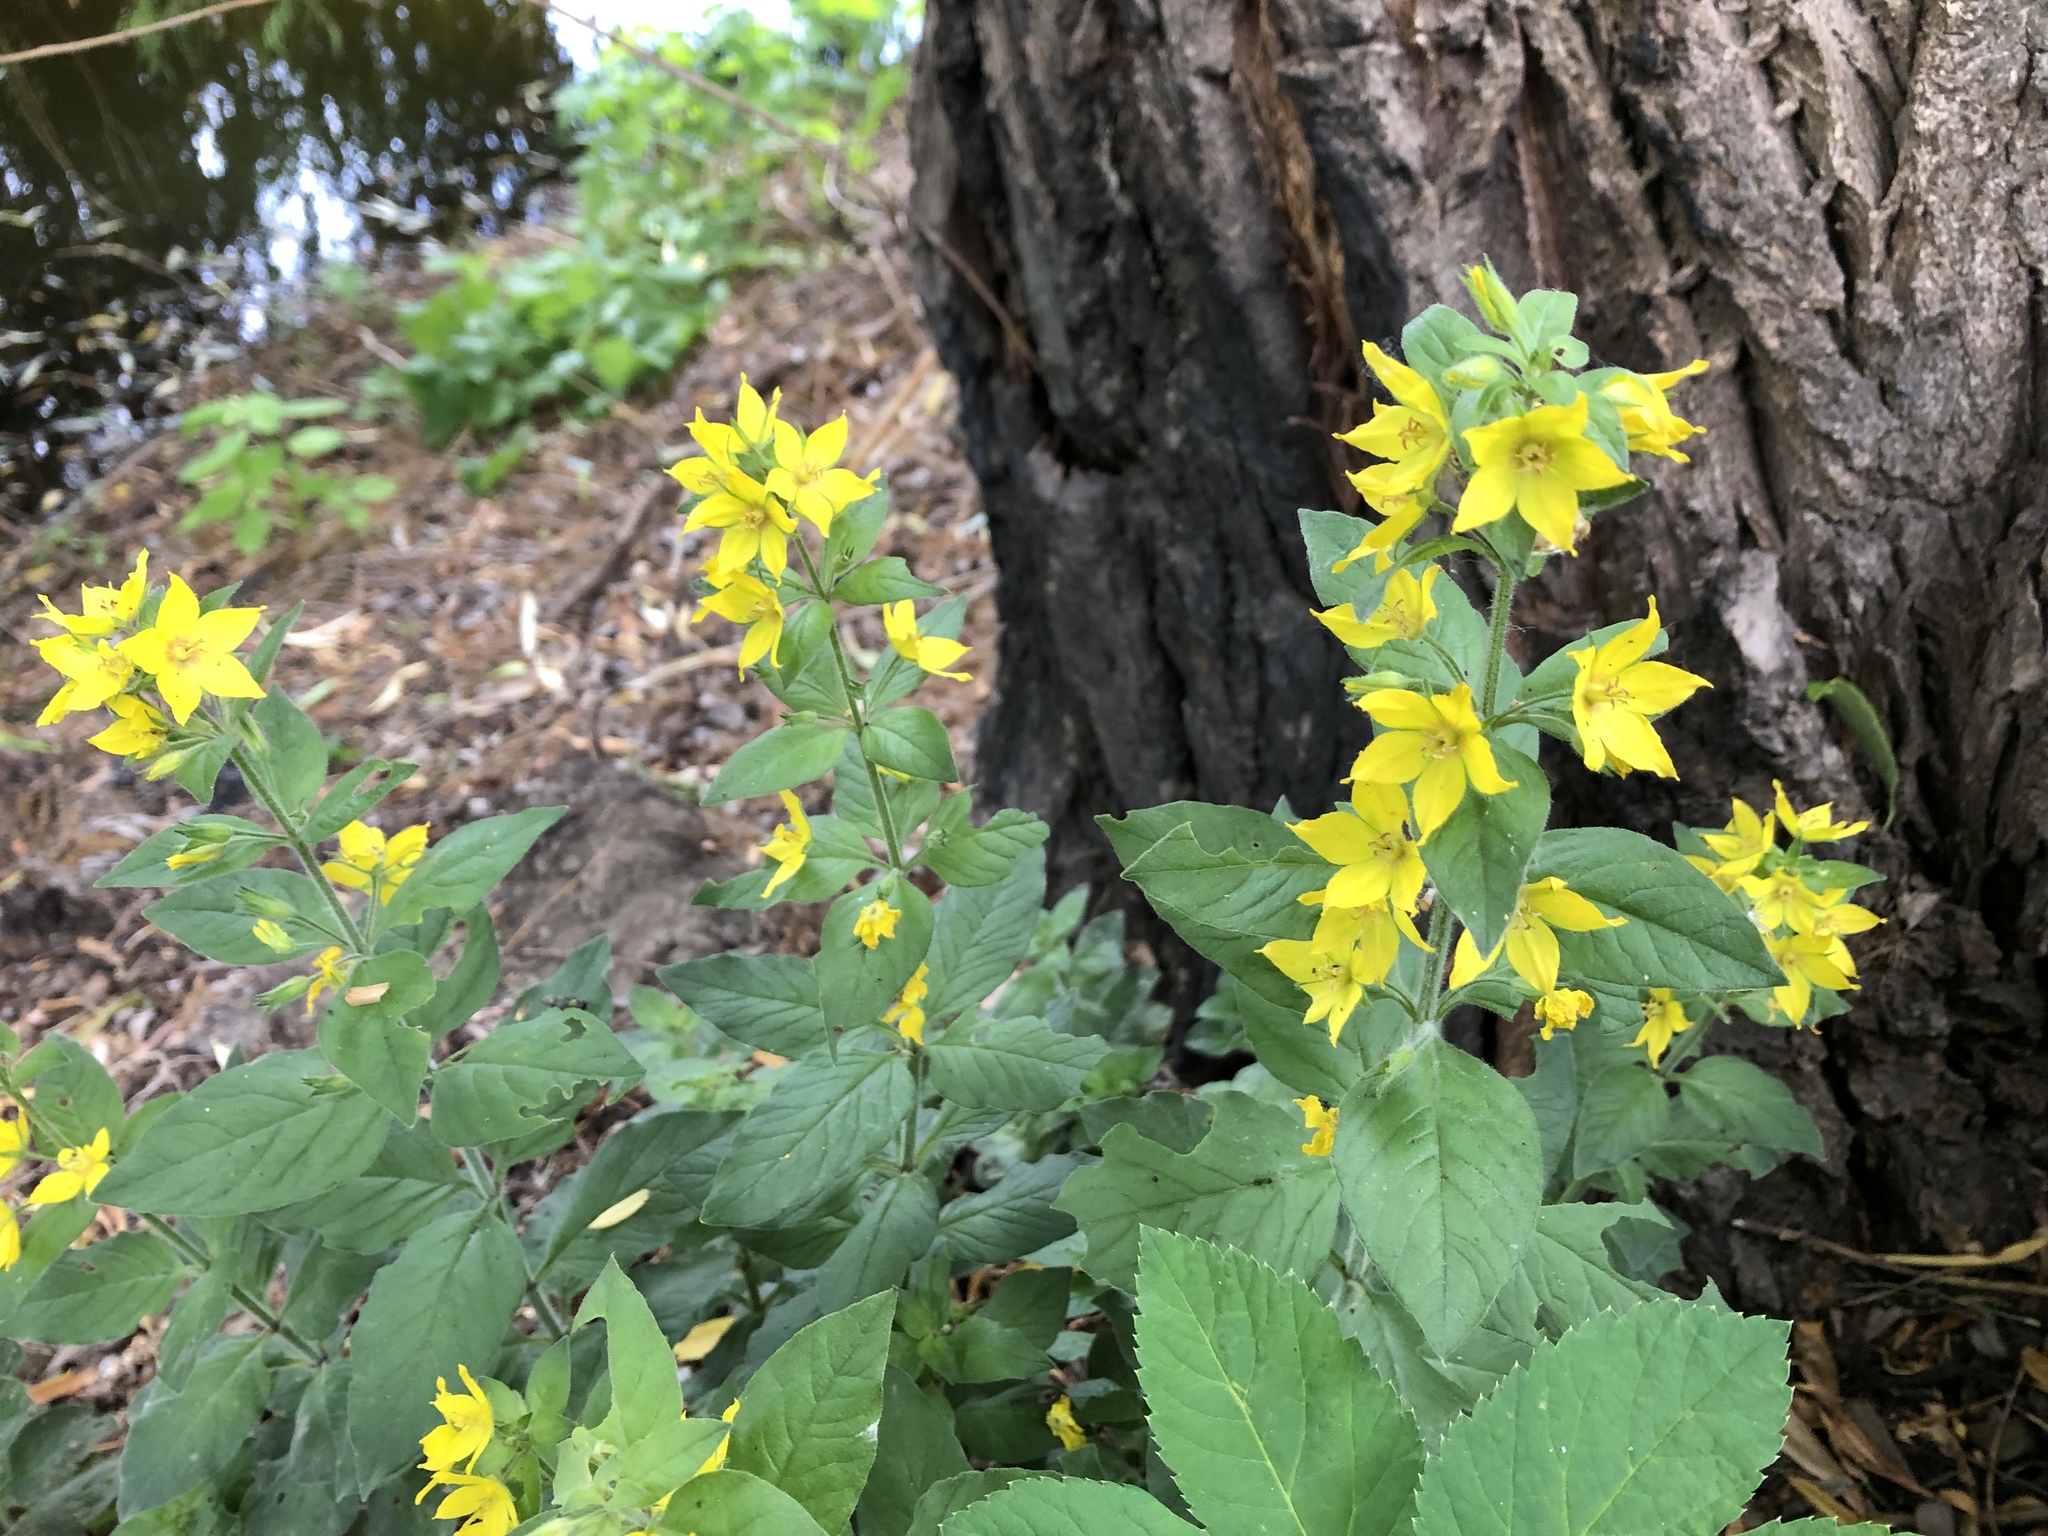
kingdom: Plantae
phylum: Tracheophyta
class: Magnoliopsida
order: Ericales
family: Primulaceae
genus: Lysimachia
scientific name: Lysimachia punctata
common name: Dotted loosestrife
